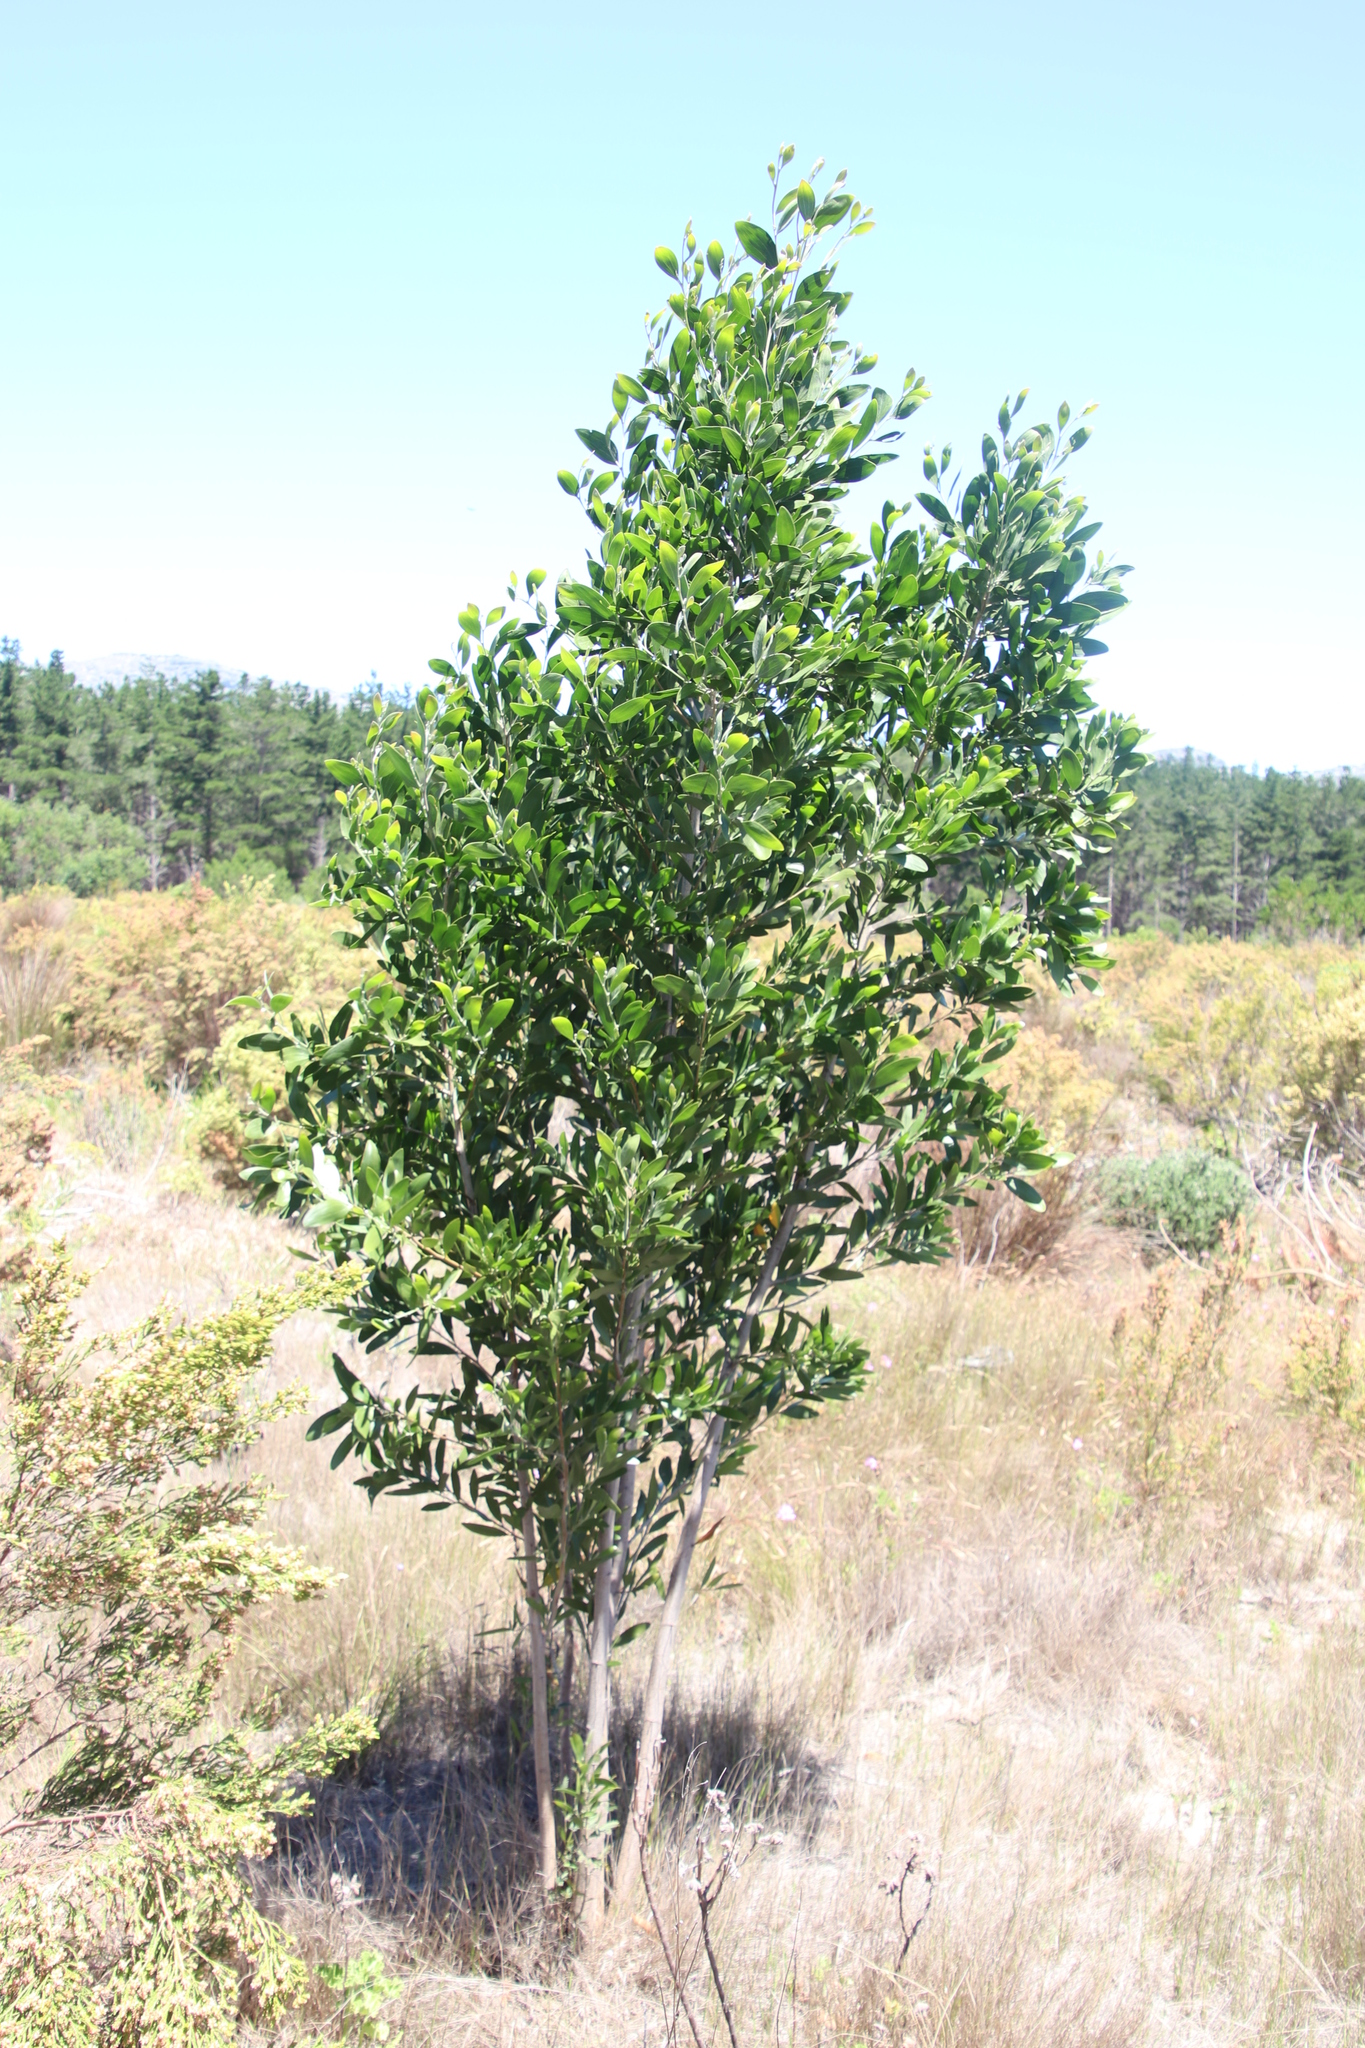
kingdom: Plantae
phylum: Tracheophyta
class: Magnoliopsida
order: Fabales
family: Fabaceae
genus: Acacia
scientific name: Acacia melanoxylon
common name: Blackwood
